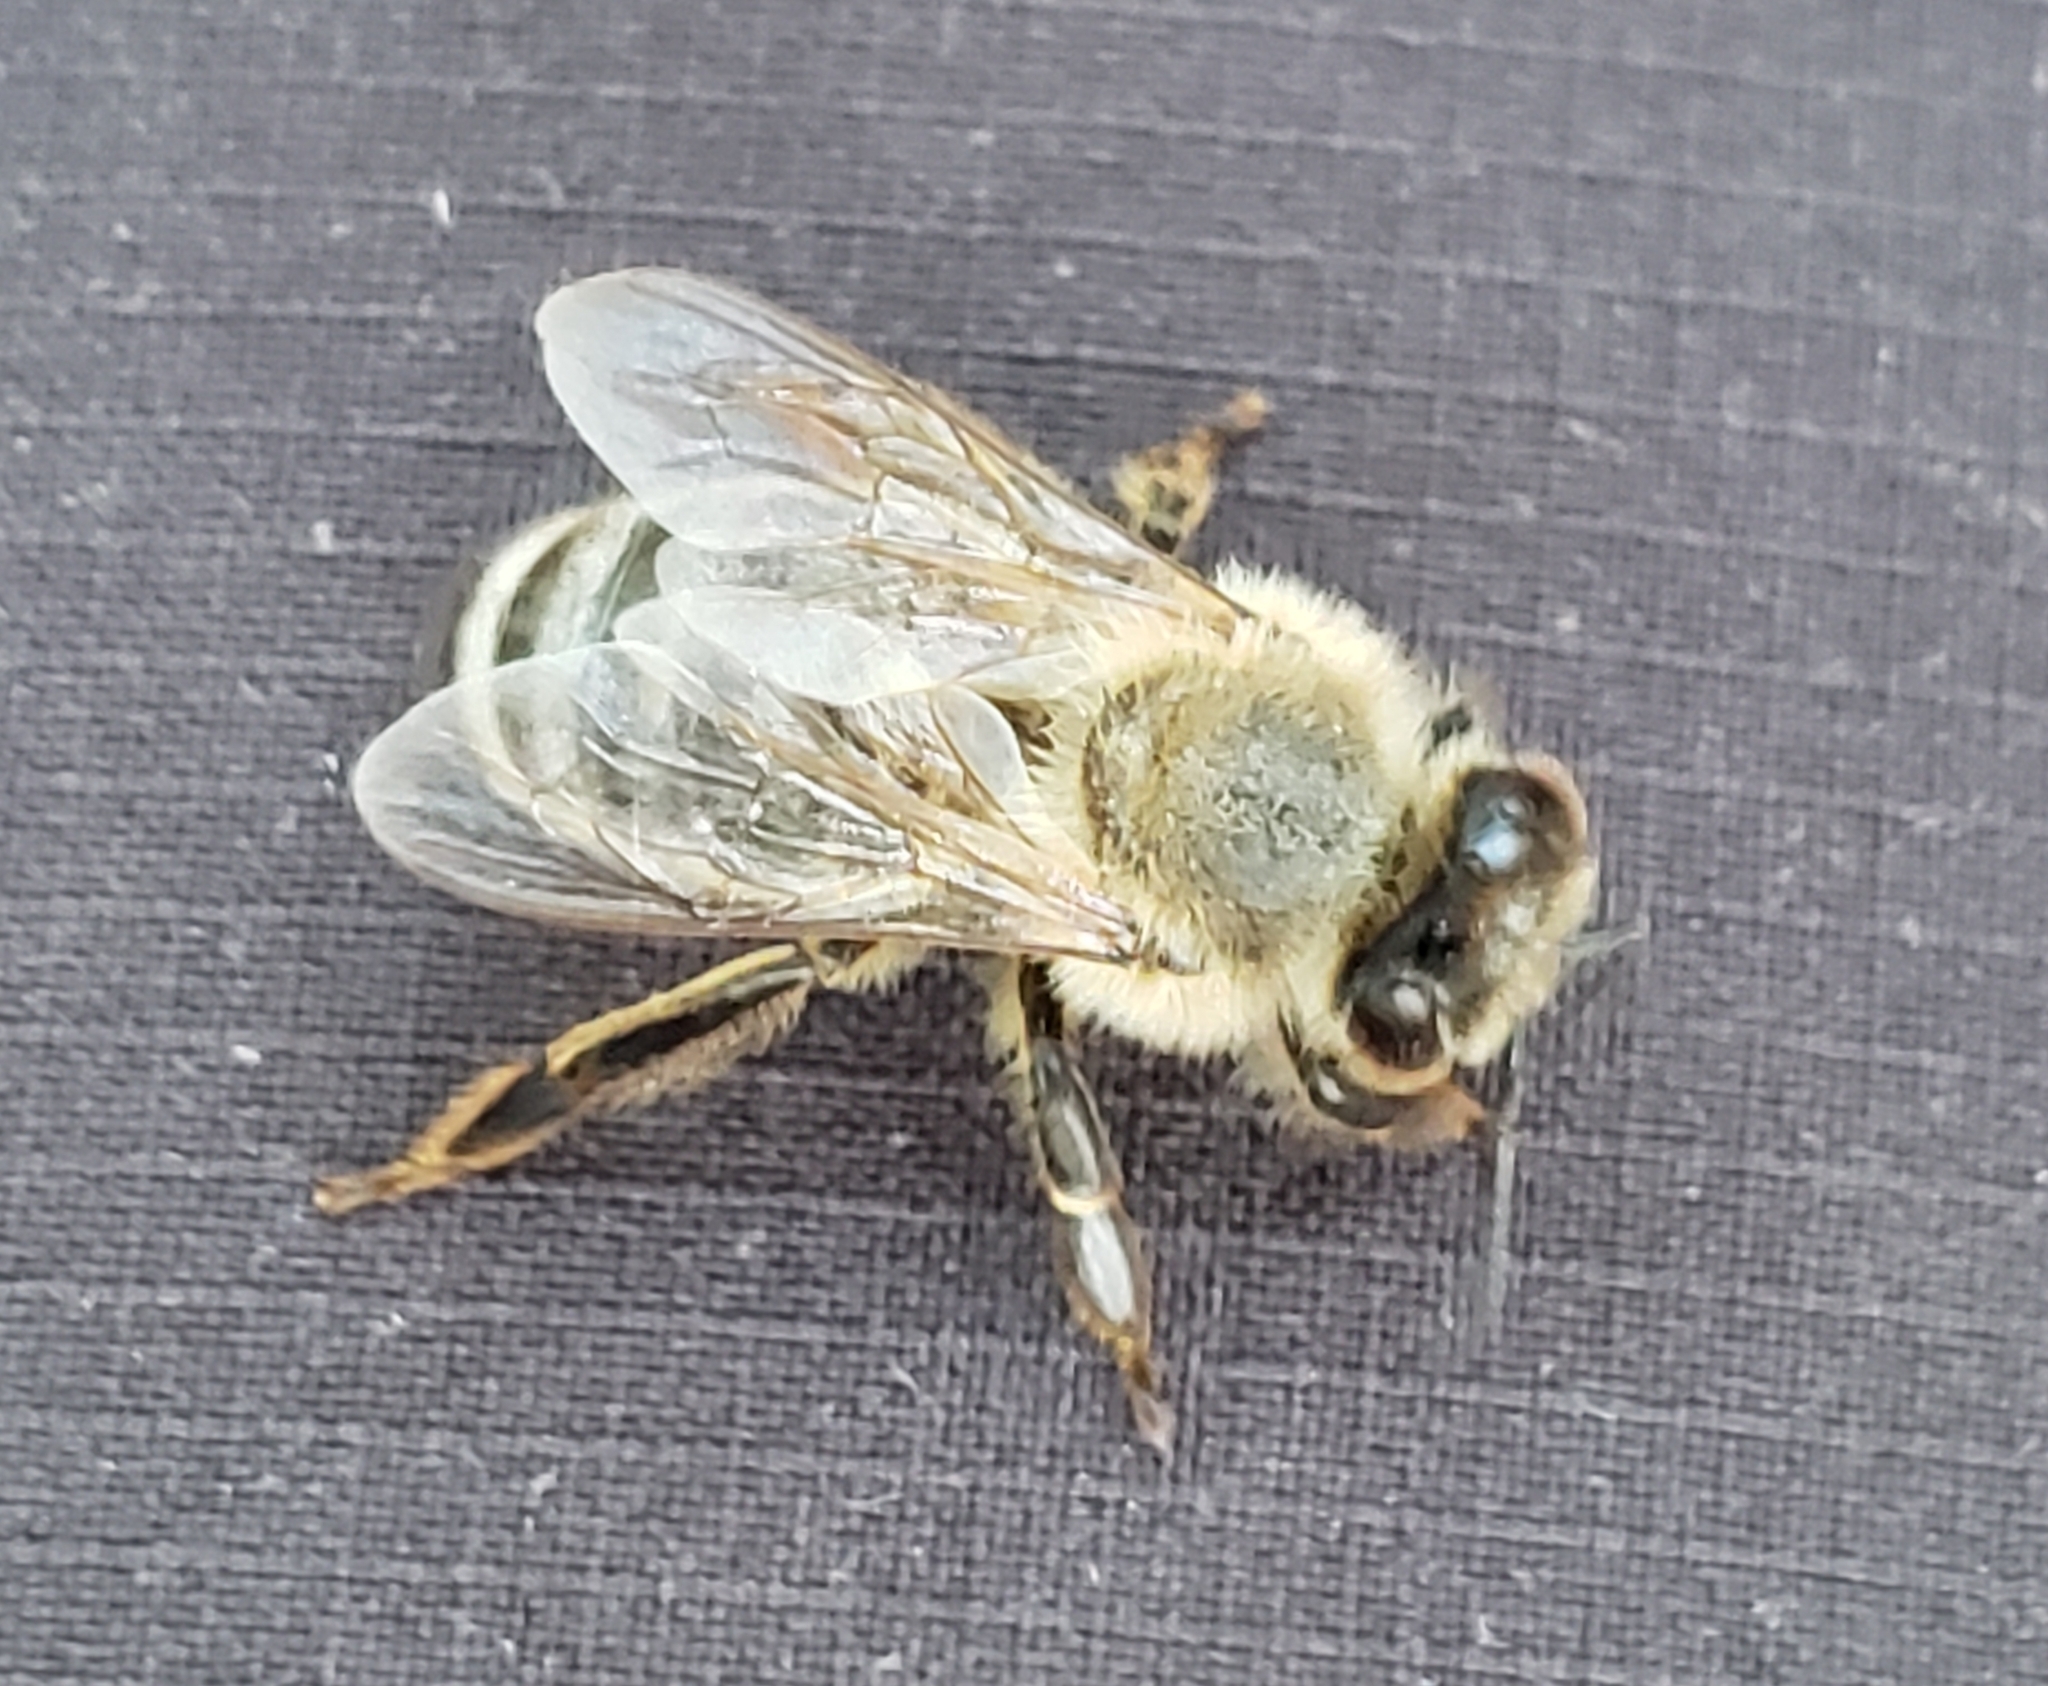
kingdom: Animalia
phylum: Arthropoda
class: Insecta
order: Hymenoptera
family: Apidae
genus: Apis
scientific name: Apis mellifera
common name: Honey bee
